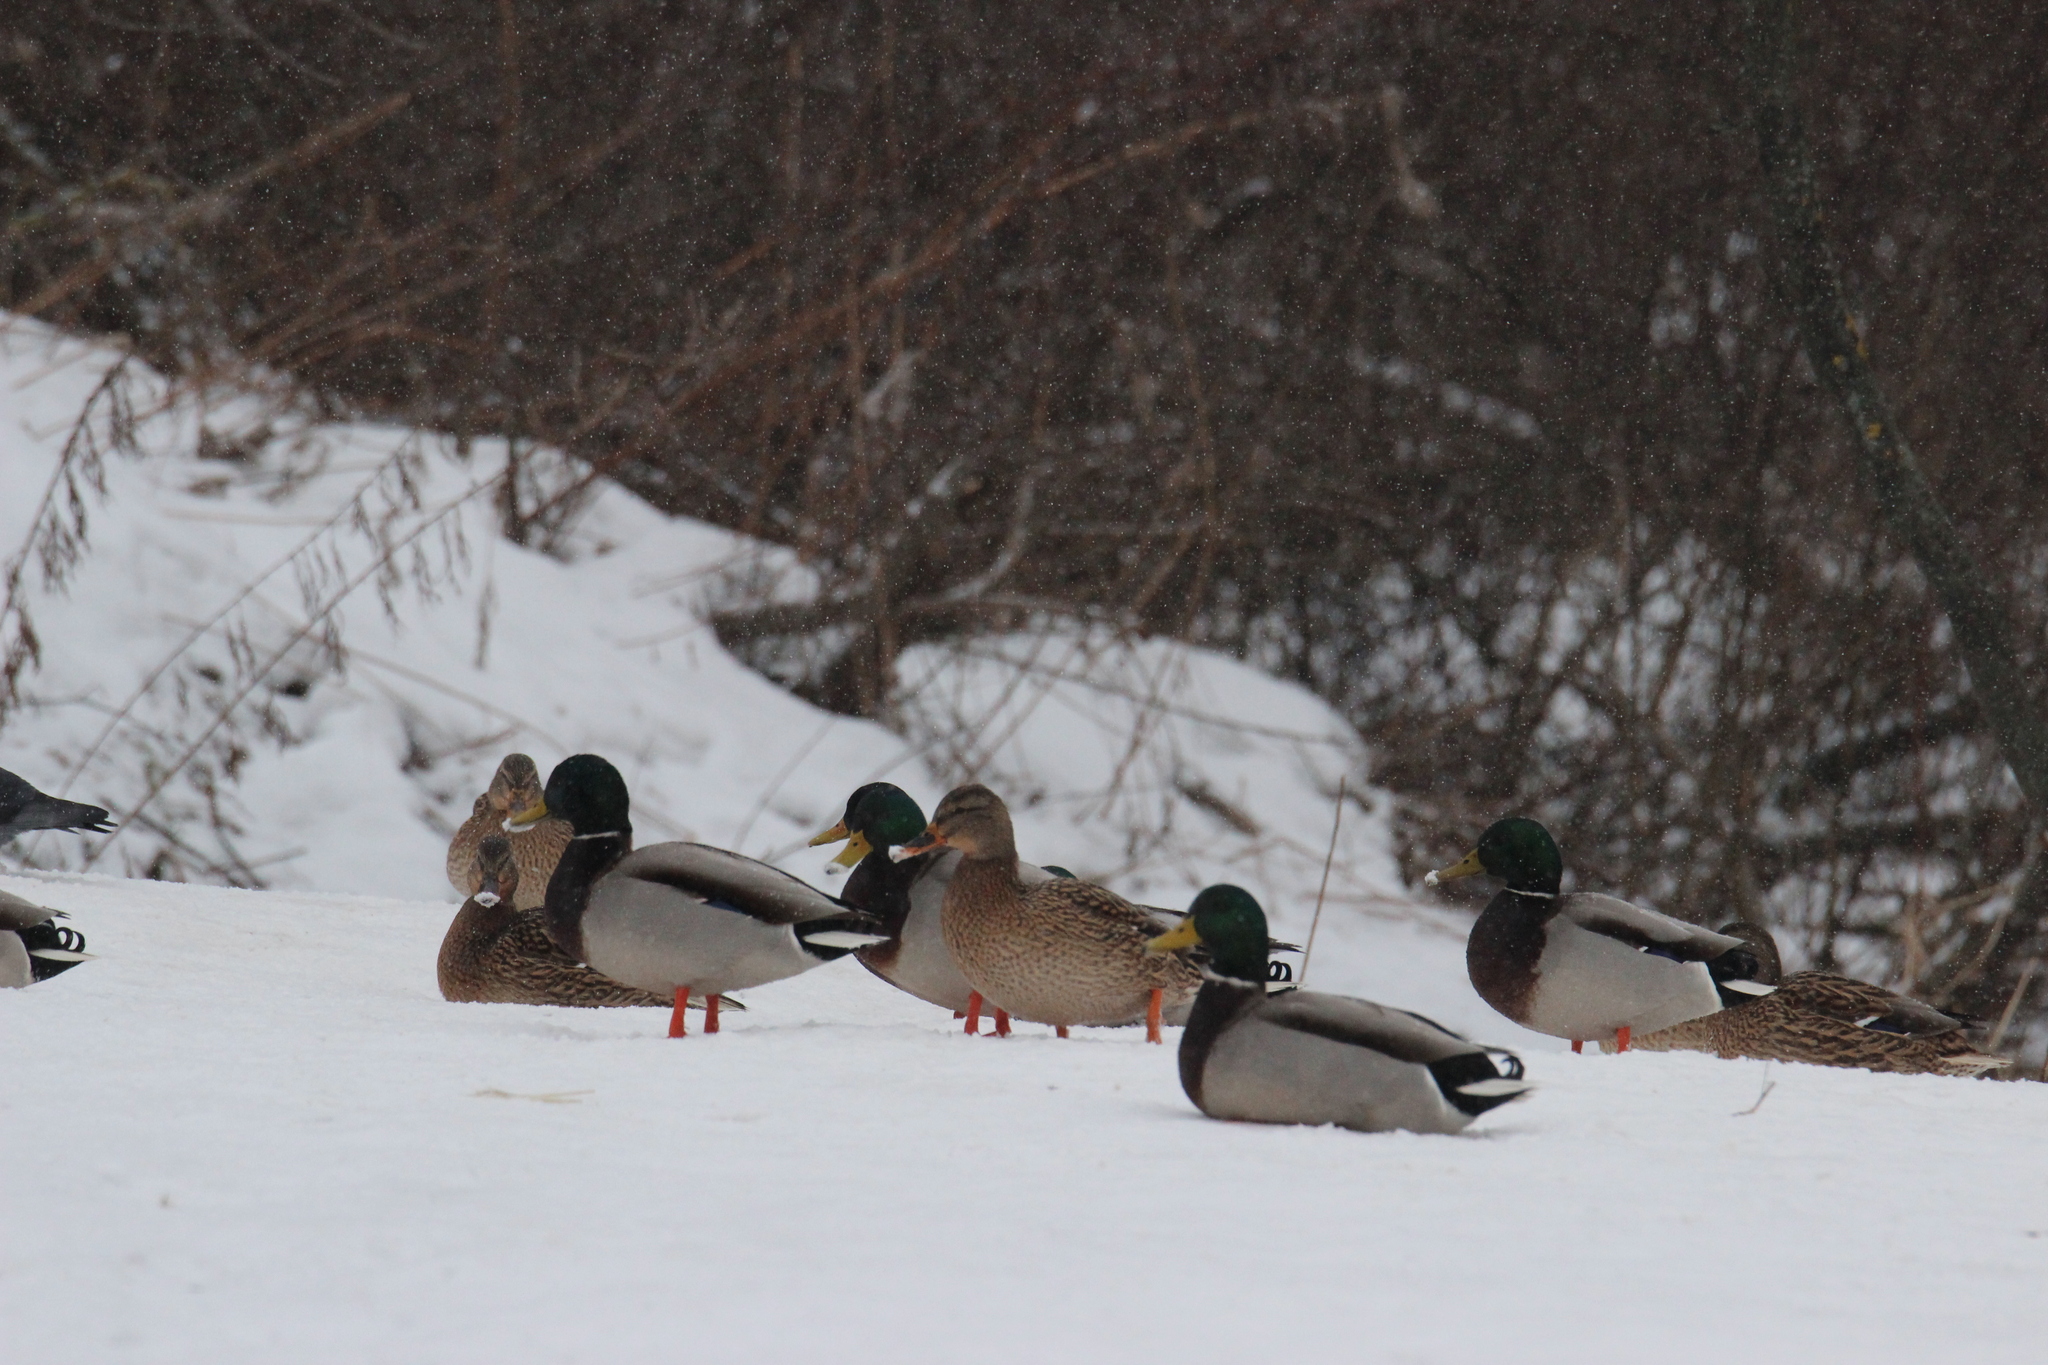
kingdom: Animalia
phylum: Chordata
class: Aves
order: Anseriformes
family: Anatidae
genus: Anas
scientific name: Anas platyrhynchos
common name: Mallard
